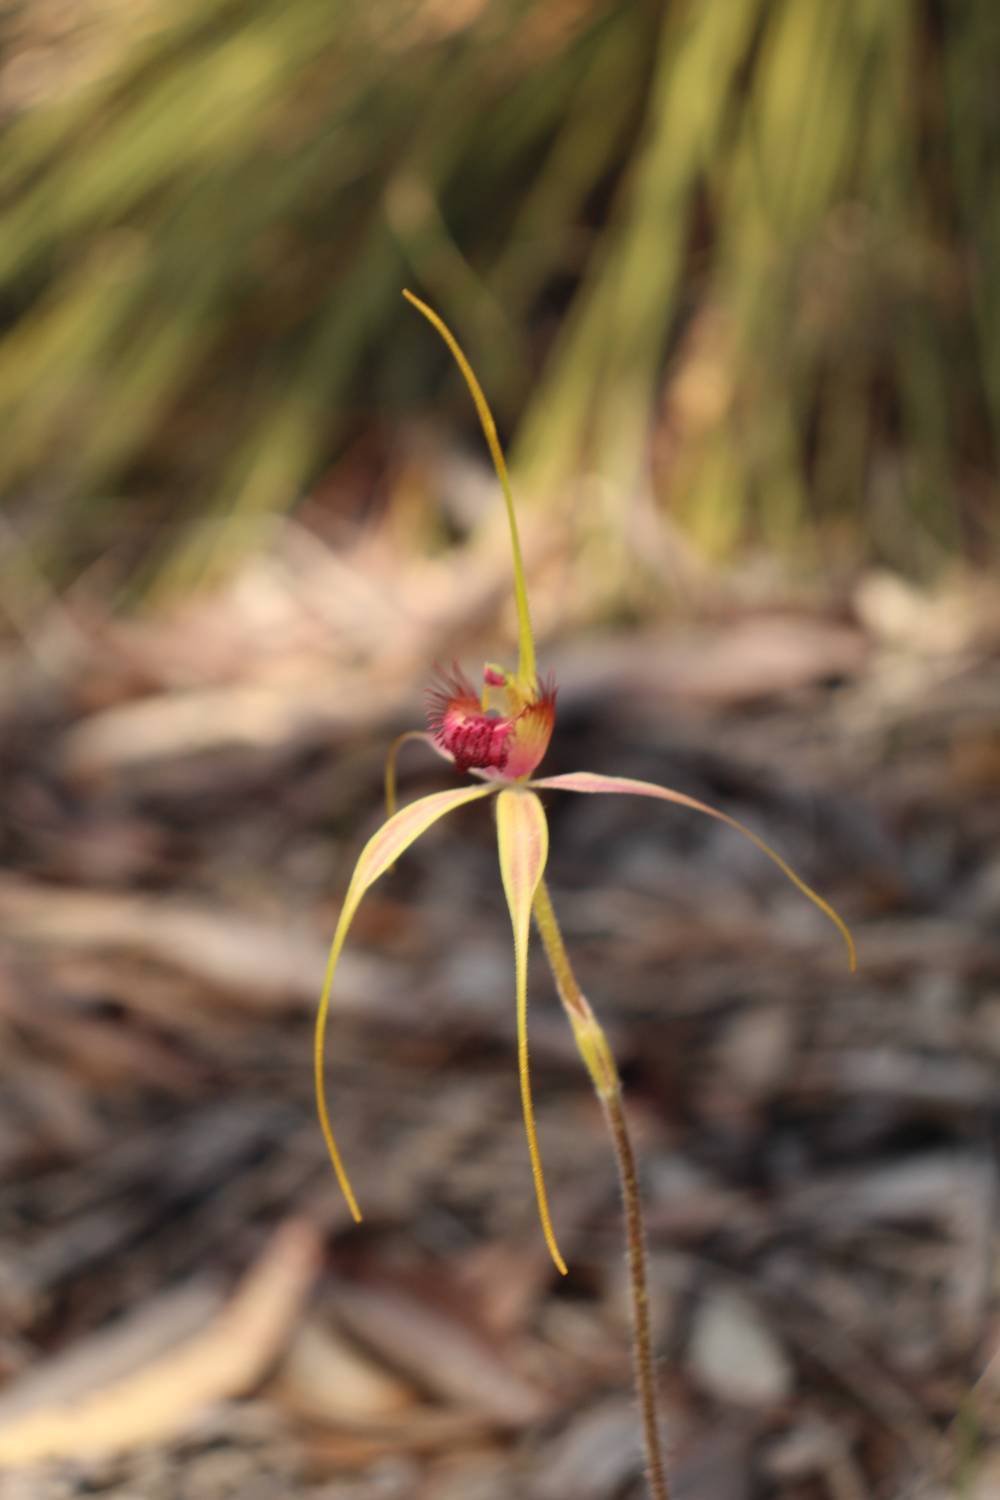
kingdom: Plantae
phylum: Tracheophyta
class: Liliopsida
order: Asparagales
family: Orchidaceae
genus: Caladenia
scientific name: Caladenia heberleana
